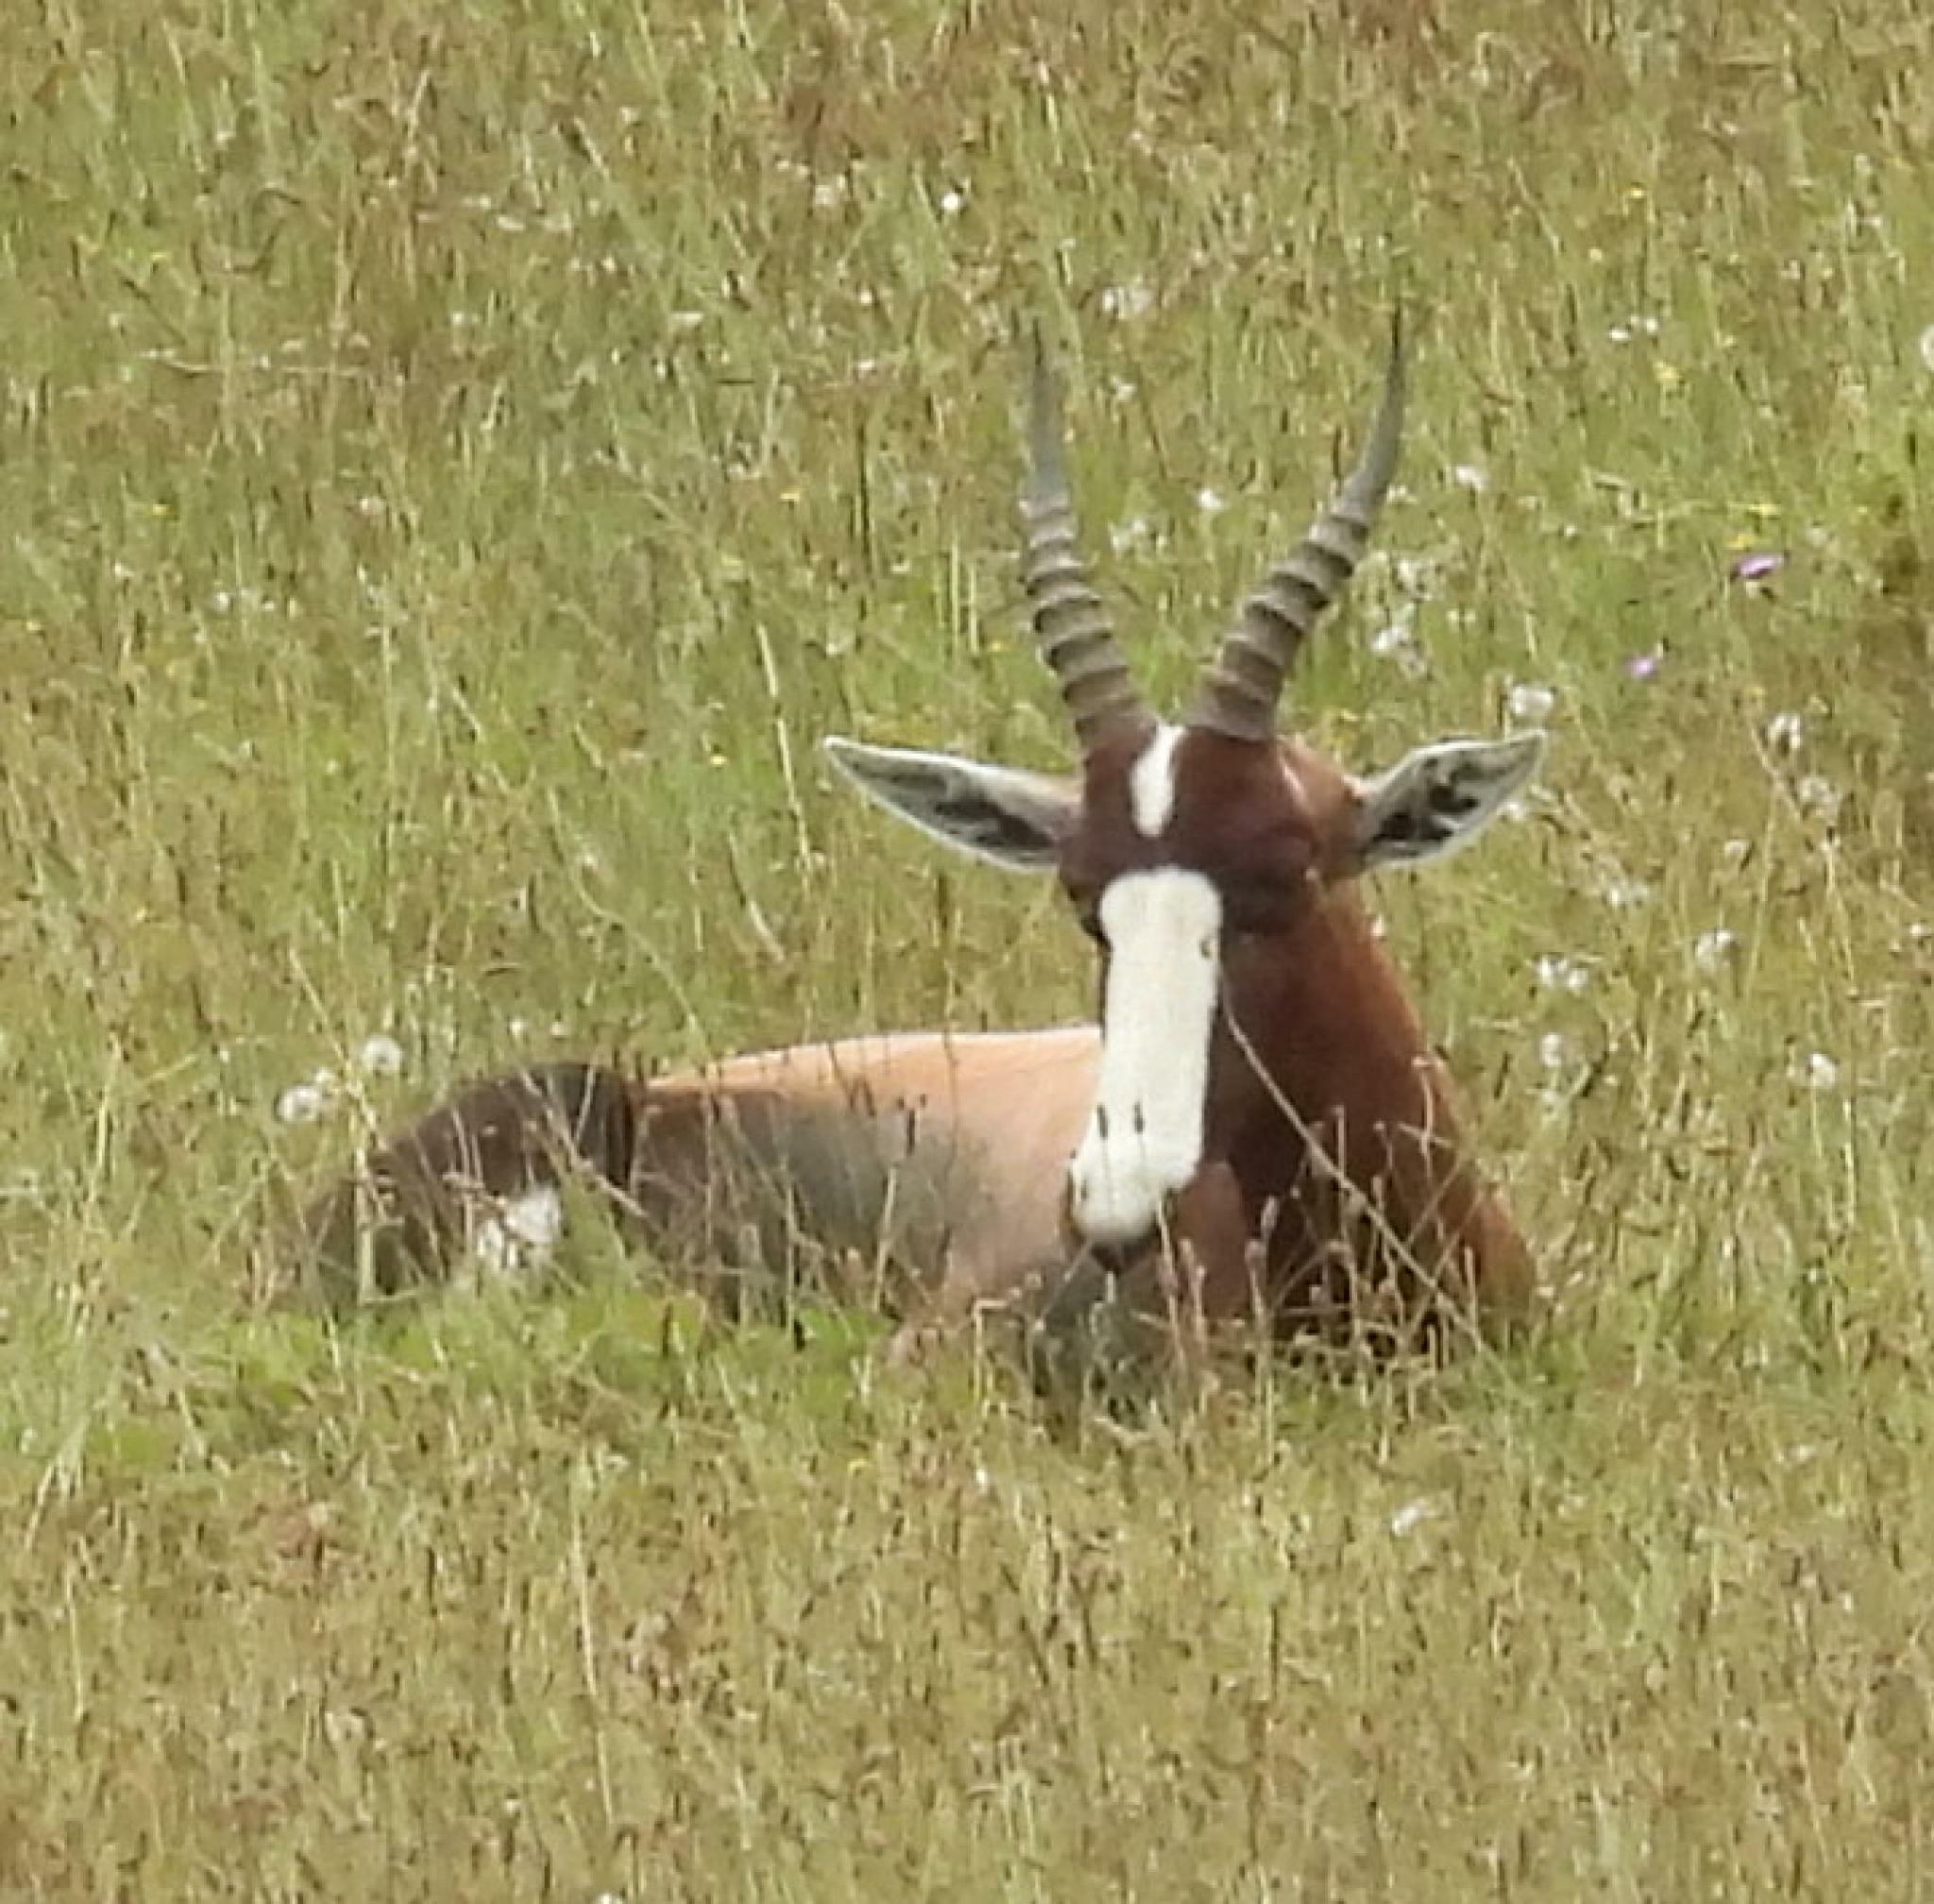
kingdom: Animalia
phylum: Chordata
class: Mammalia
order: Artiodactyla
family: Bovidae
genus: Damaliscus
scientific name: Damaliscus
